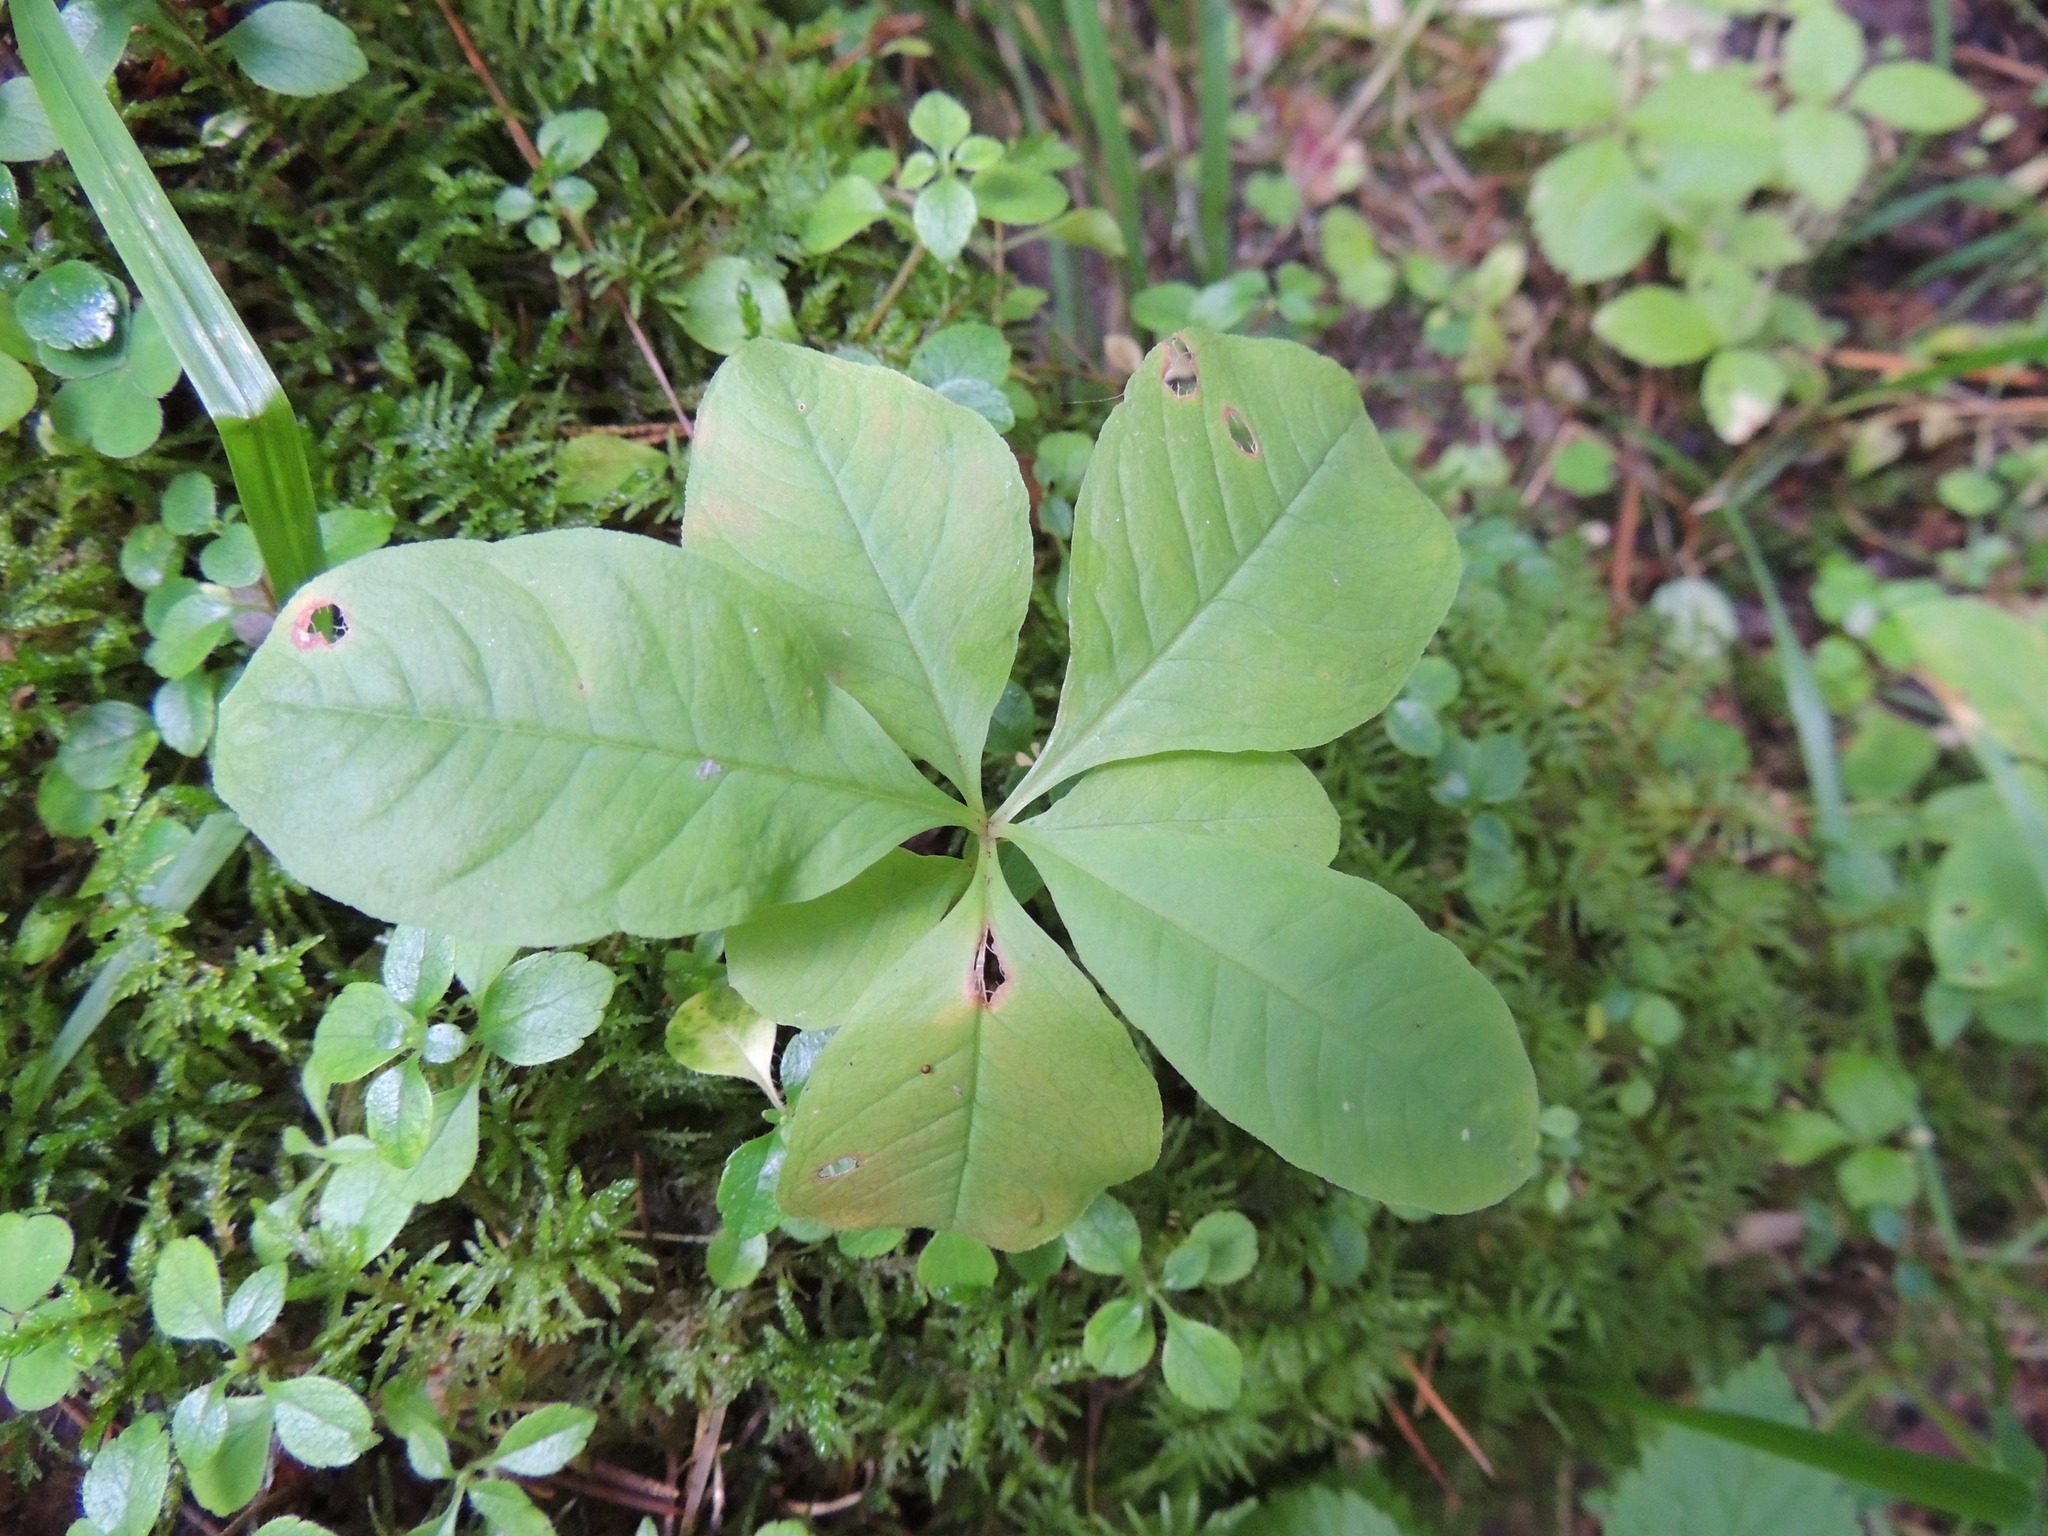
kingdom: Plantae
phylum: Tracheophyta
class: Magnoliopsida
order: Ericales
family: Primulaceae
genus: Lysimachia
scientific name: Lysimachia europaea
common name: Arctic starflower
